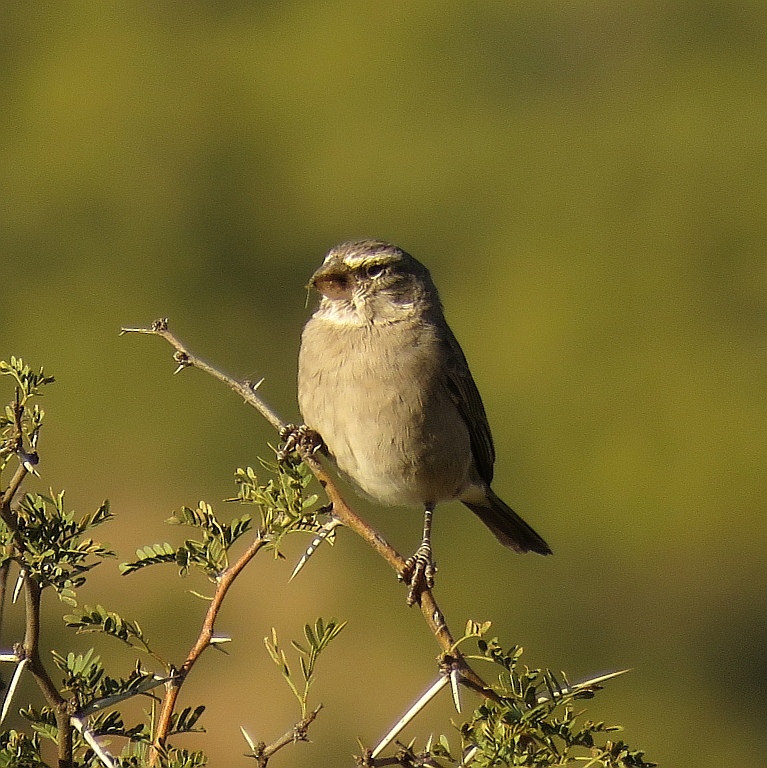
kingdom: Animalia
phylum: Chordata
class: Aves
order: Passeriformes
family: Fringillidae
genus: Crithagra
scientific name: Crithagra albogularis
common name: White-throated canary
